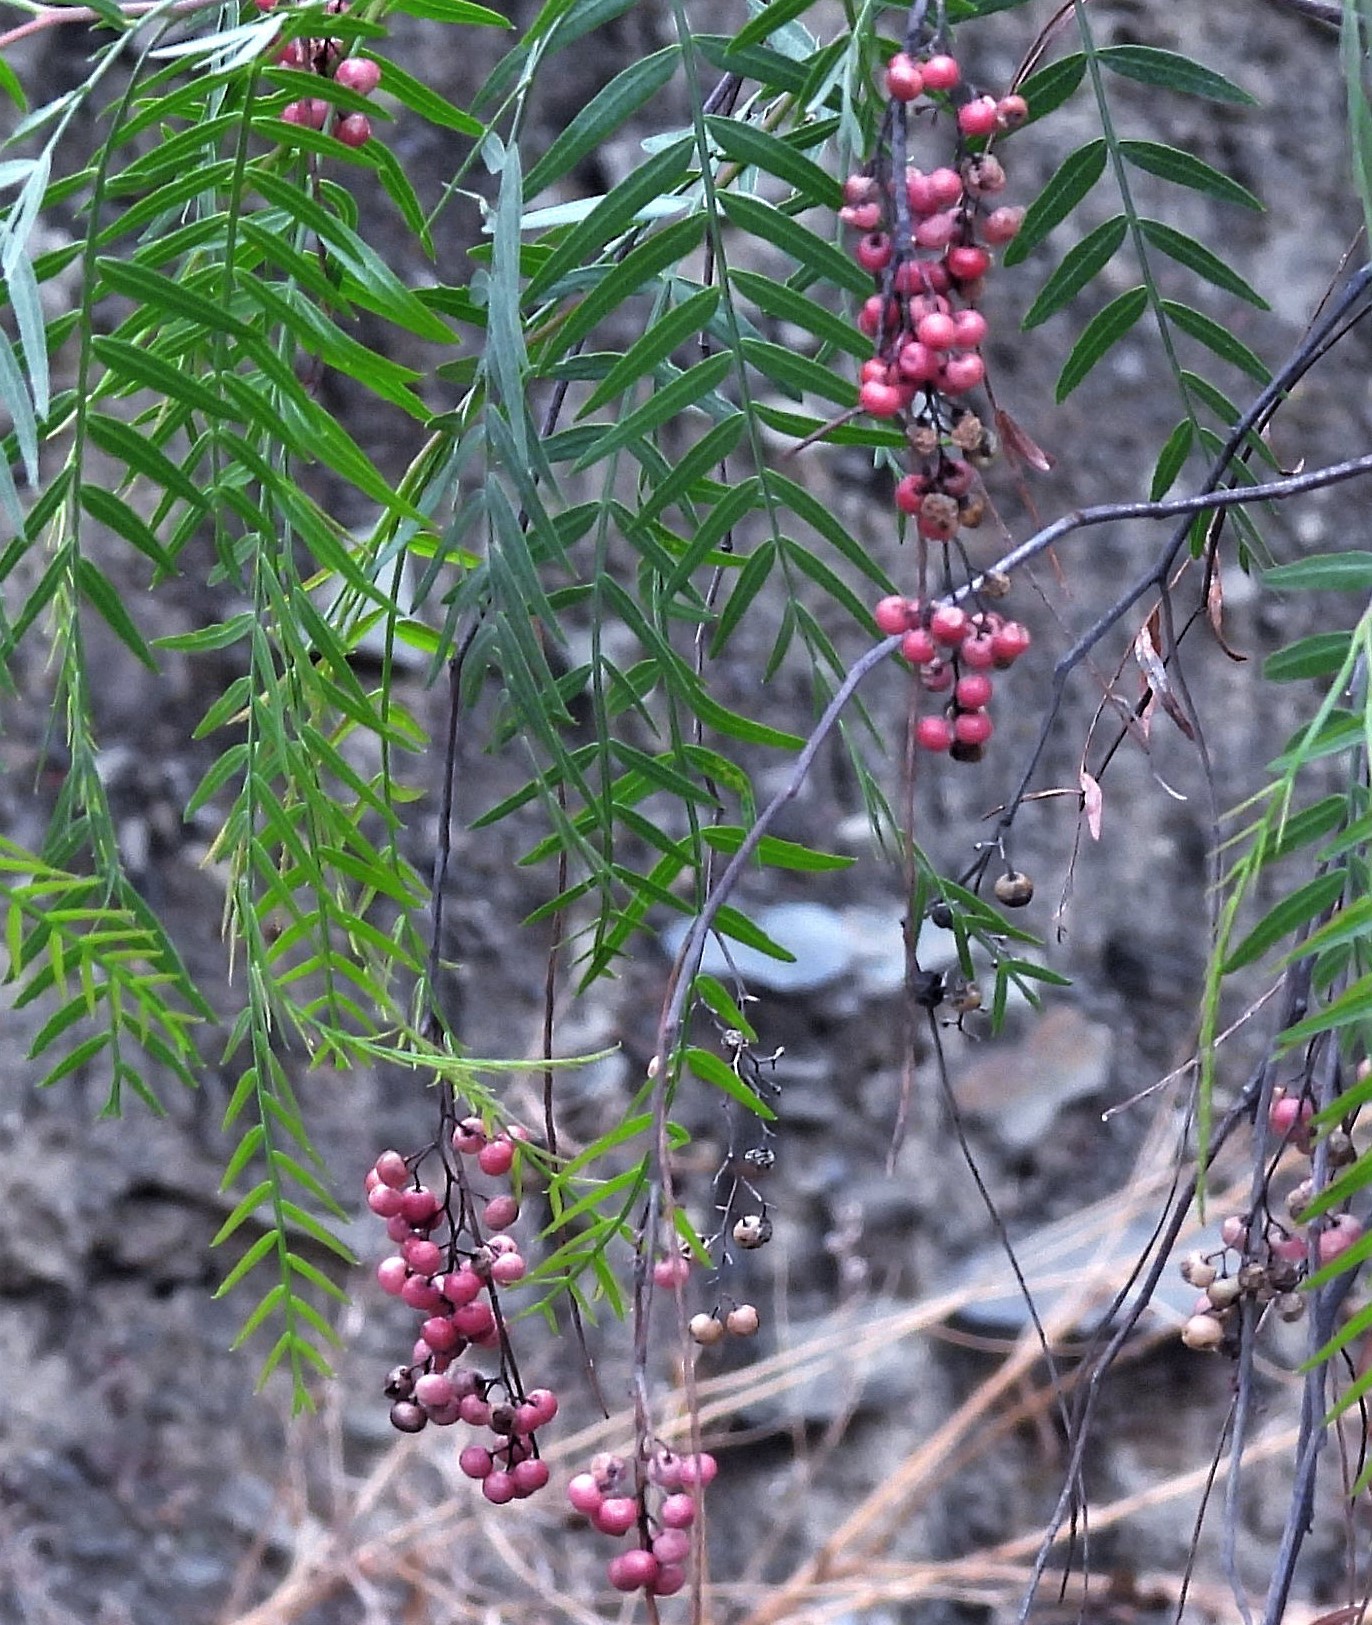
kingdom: Plantae
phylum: Tracheophyta
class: Magnoliopsida
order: Sapindales
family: Anacardiaceae
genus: Schinus
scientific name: Schinus areira
